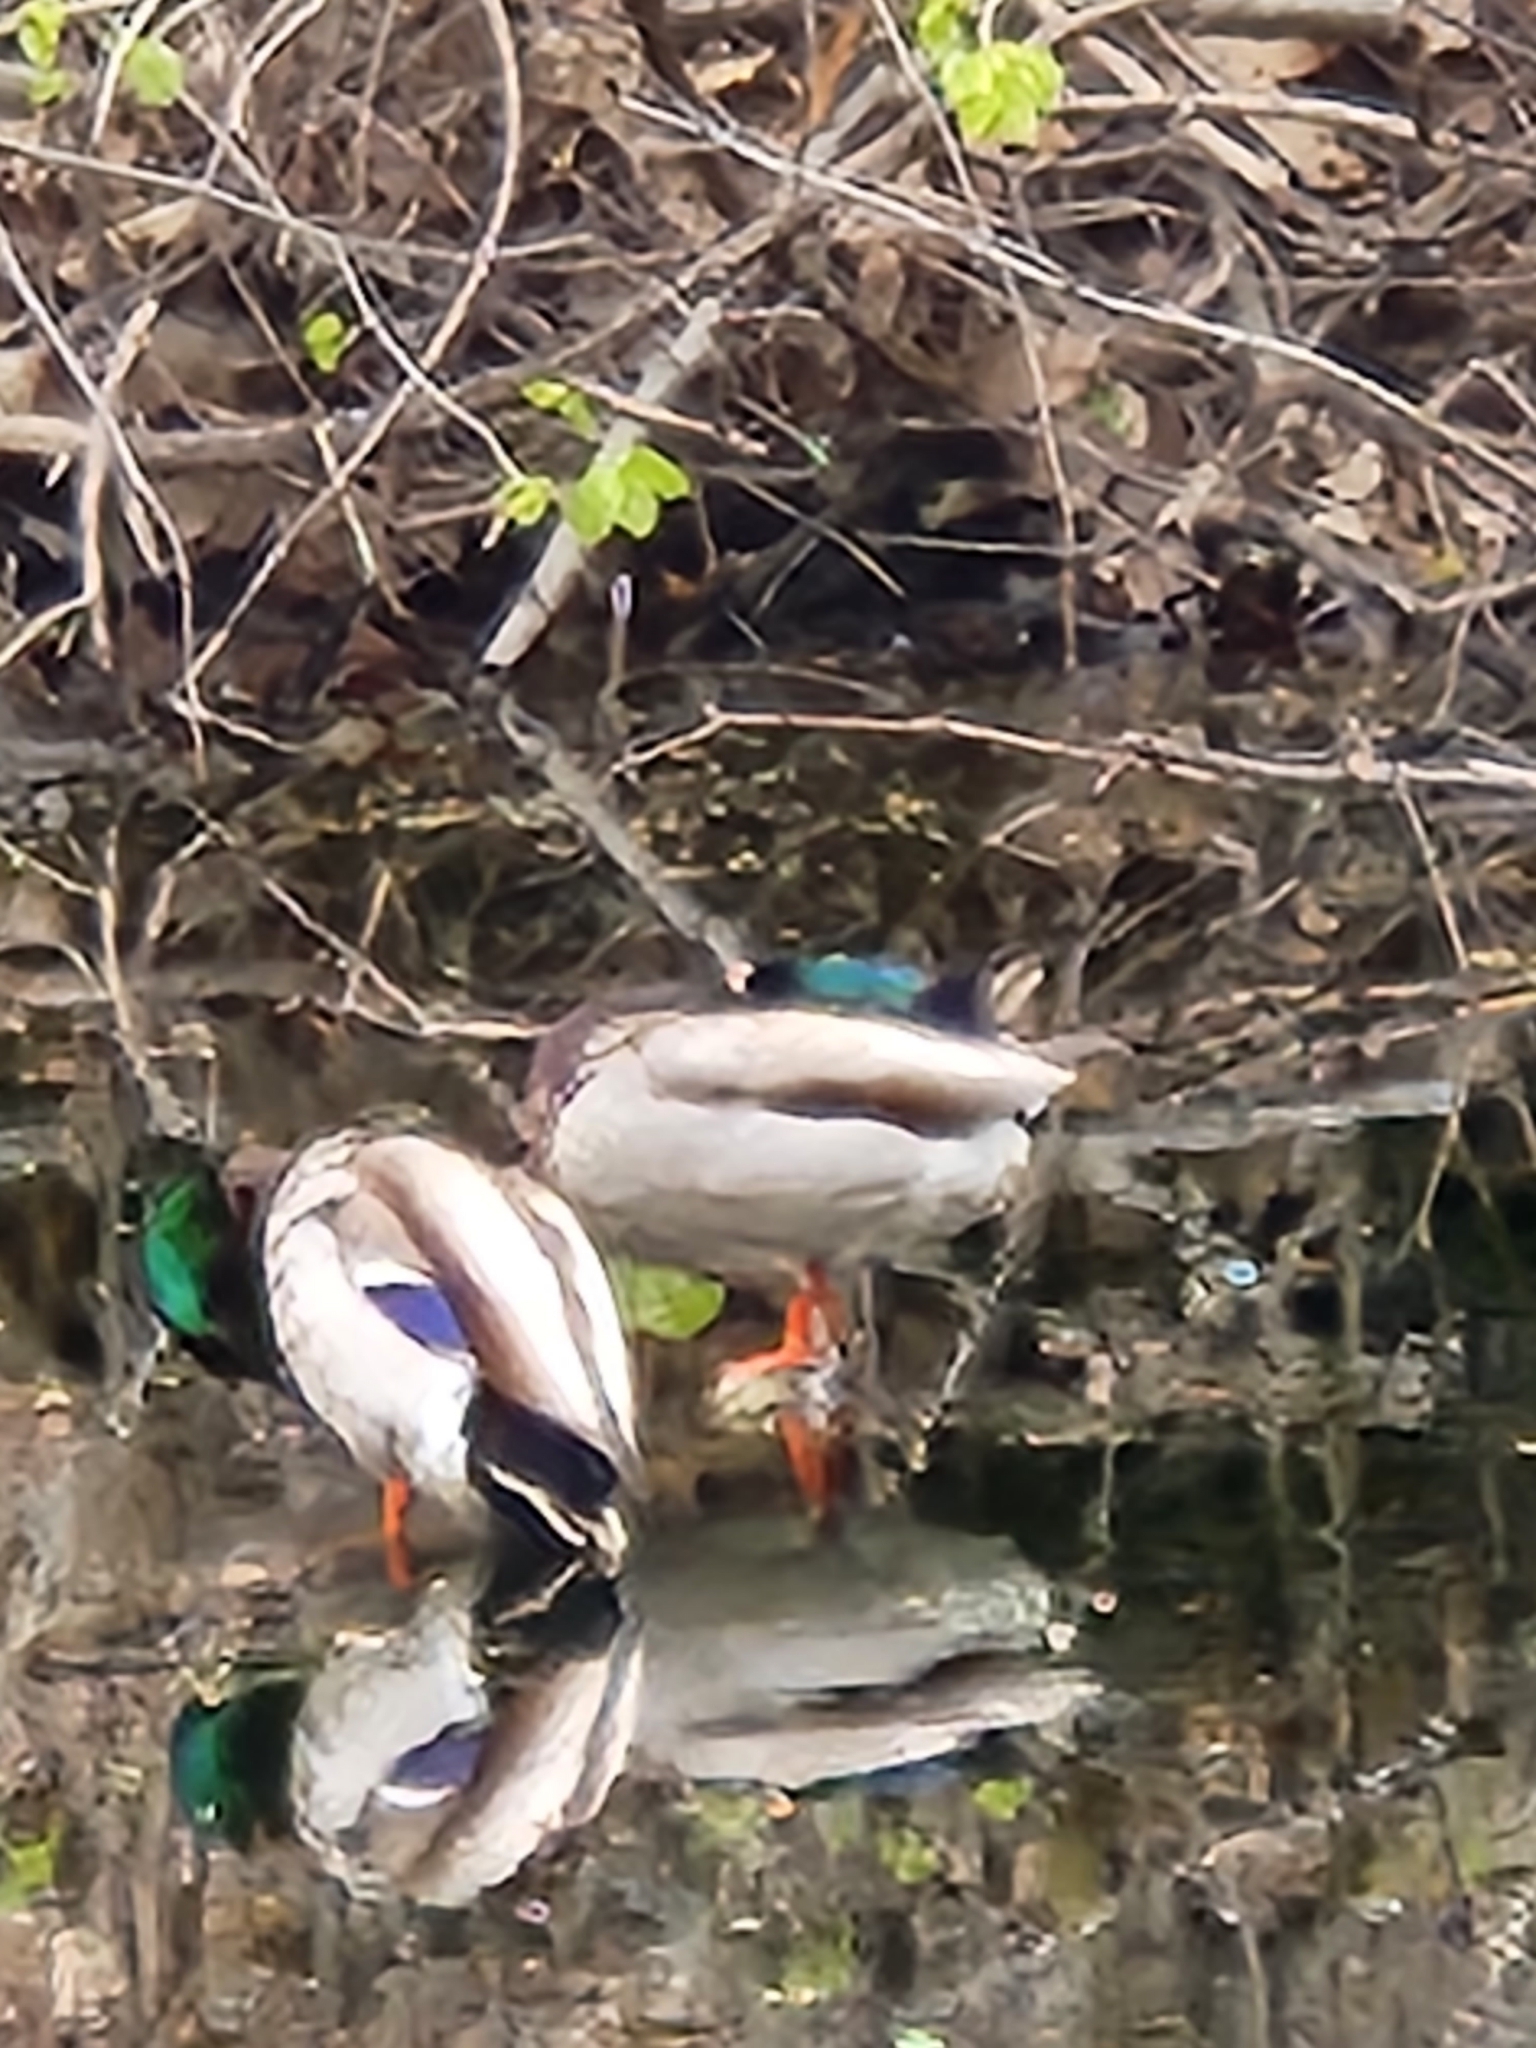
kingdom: Animalia
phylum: Chordata
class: Aves
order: Anseriformes
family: Anatidae
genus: Anas
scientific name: Anas platyrhynchos
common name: Mallard
